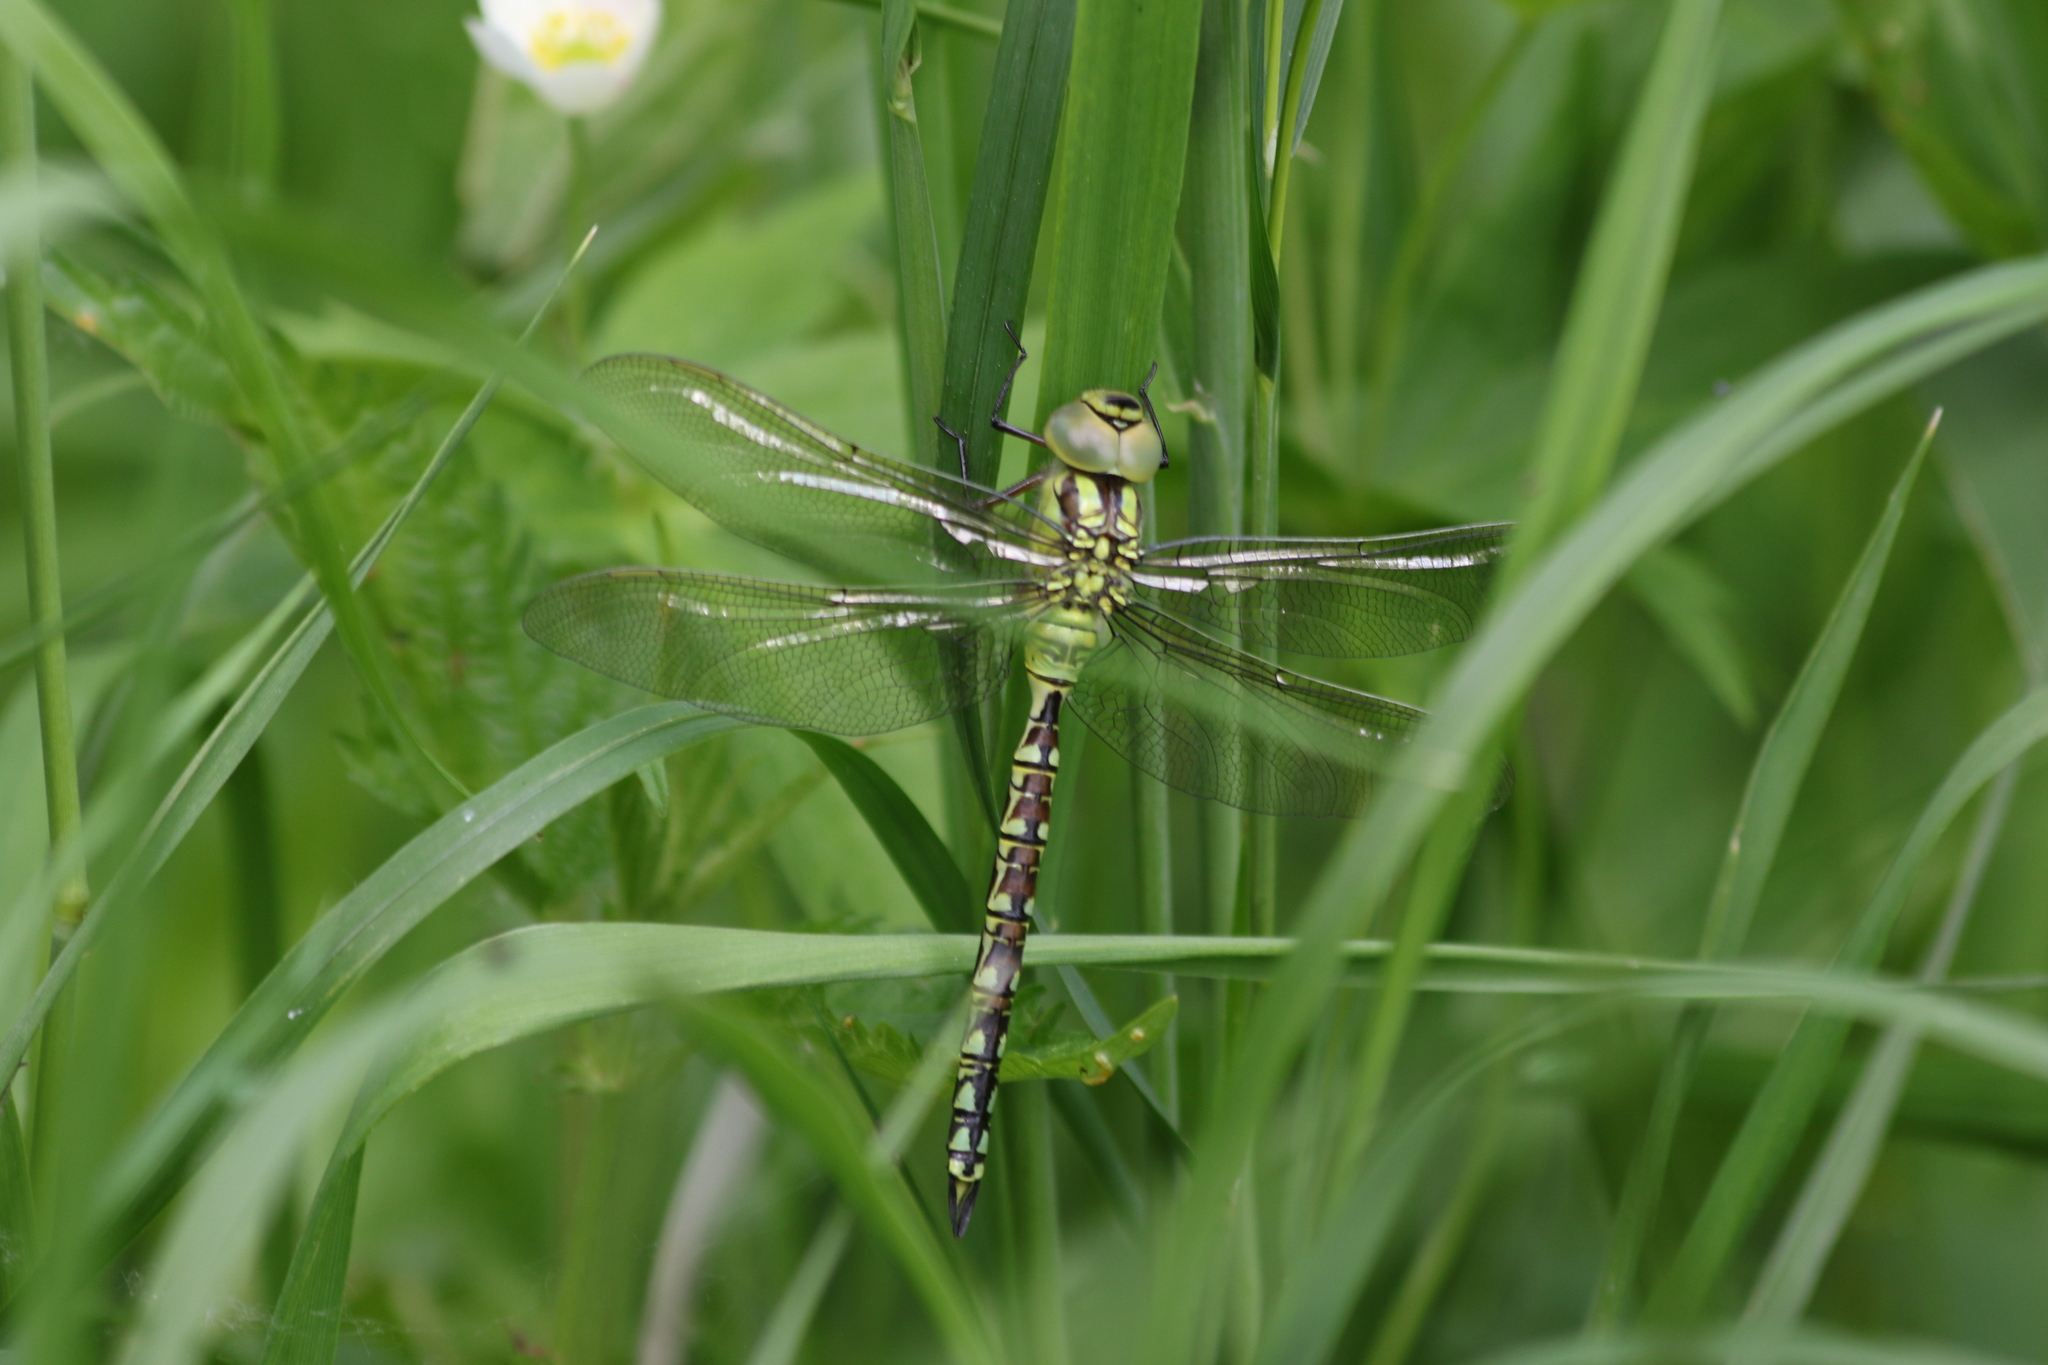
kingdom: Animalia
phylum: Arthropoda
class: Insecta
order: Odonata
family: Aeshnidae
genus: Aeshna
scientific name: Aeshna viridis
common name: Green hawker
